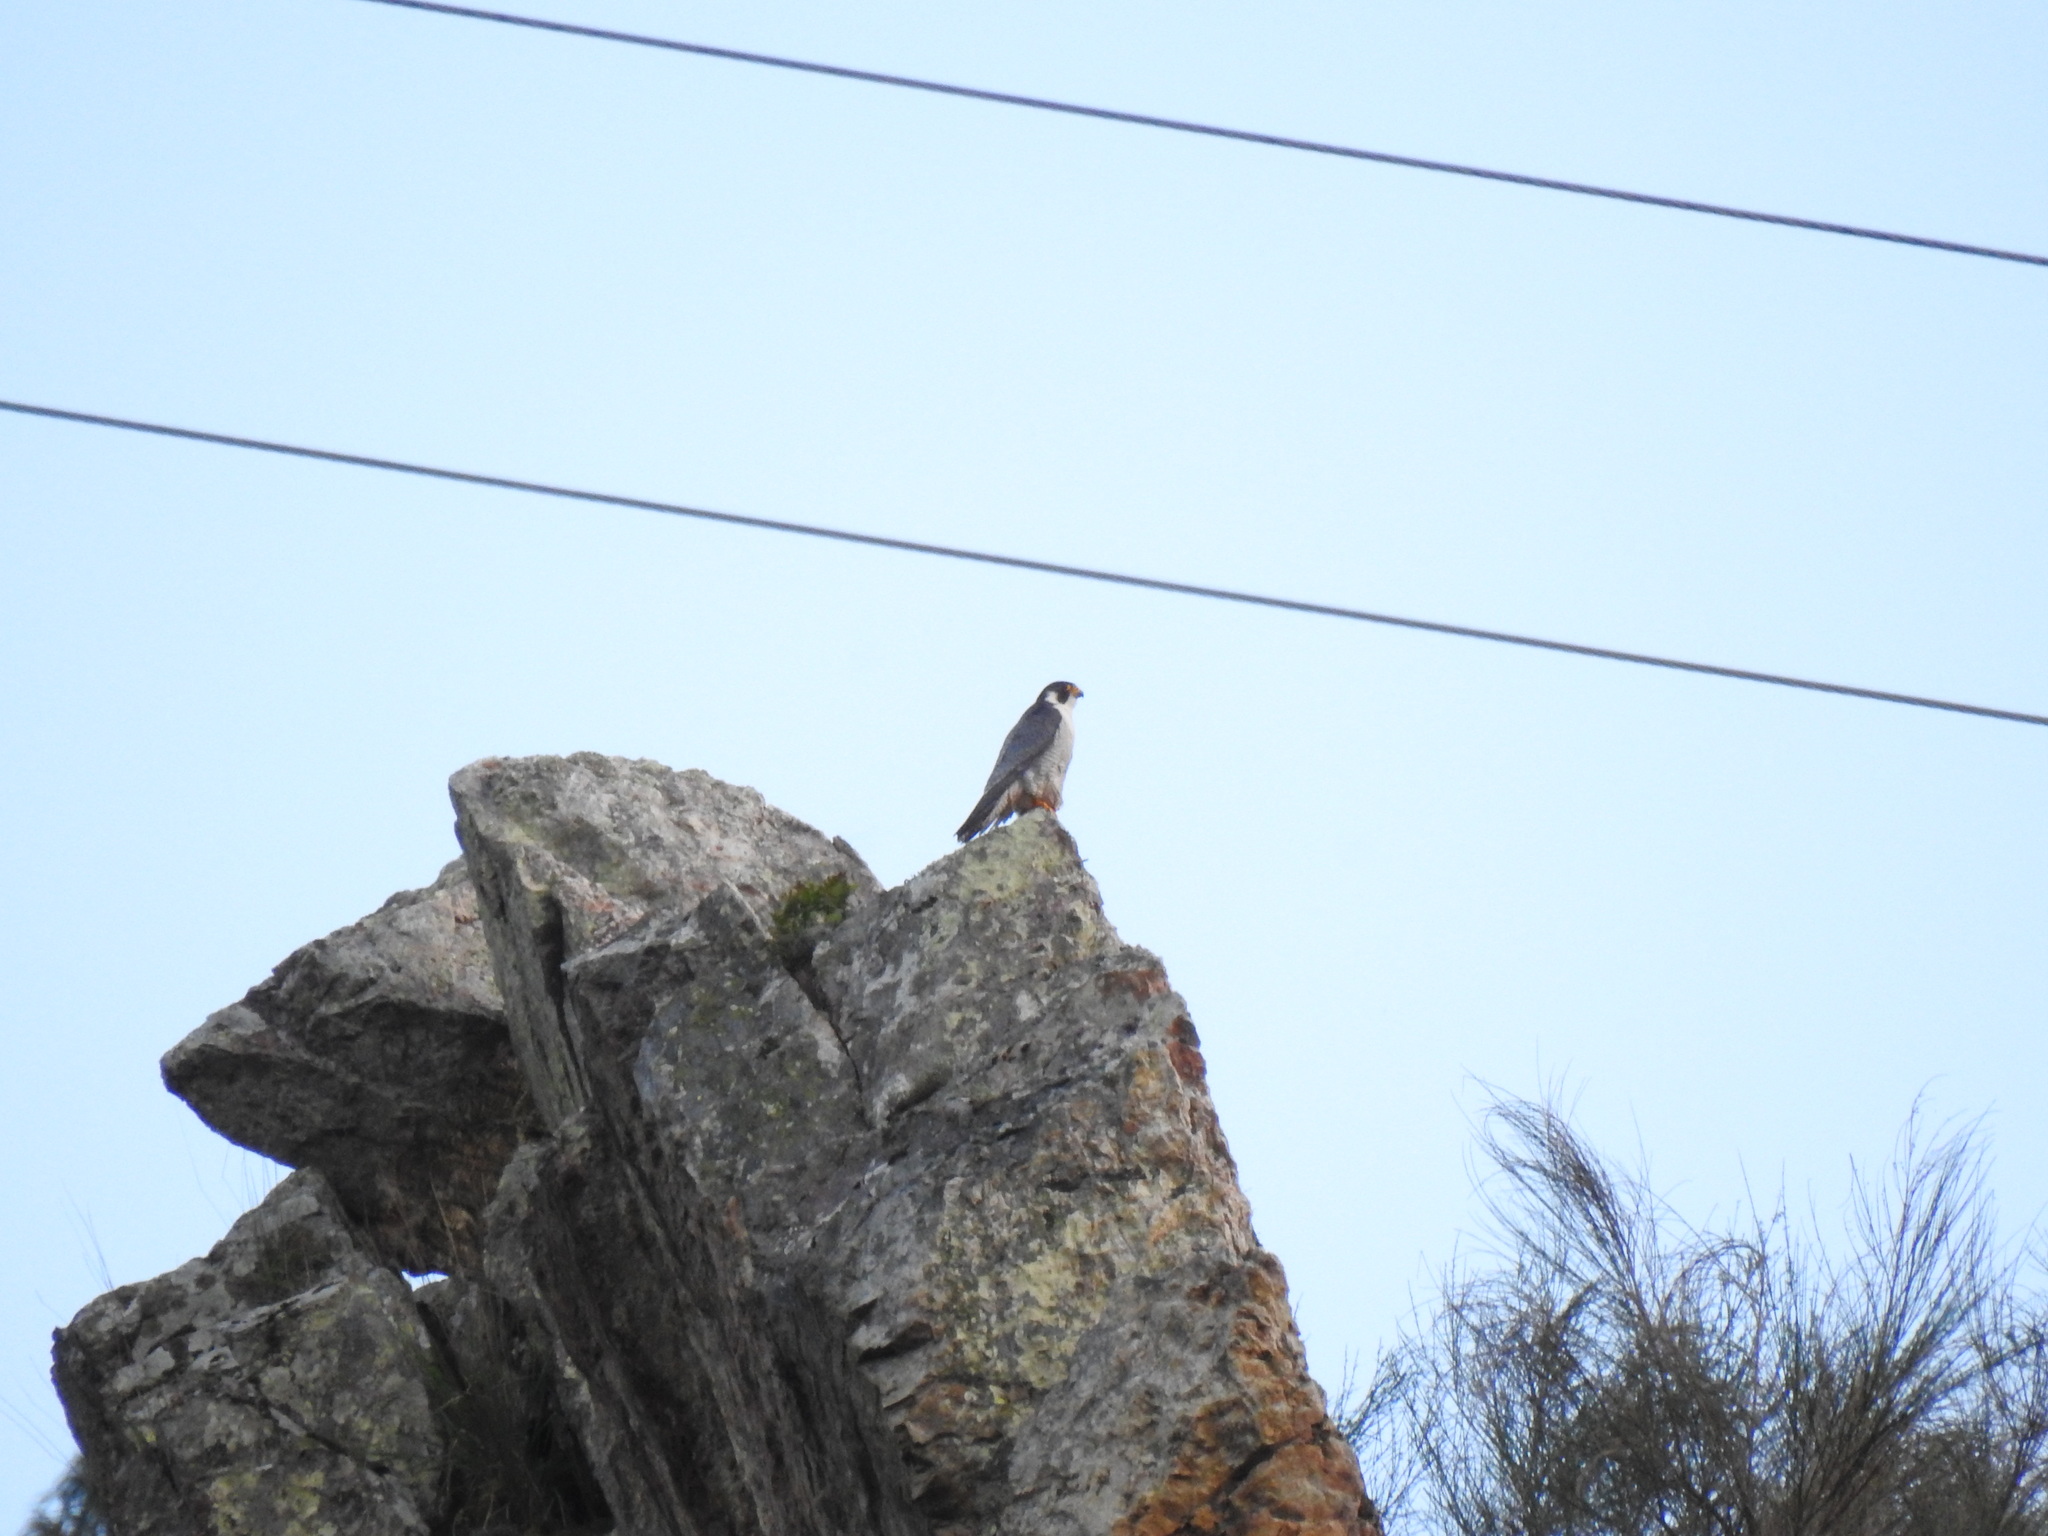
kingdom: Animalia
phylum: Chordata
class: Aves
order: Falconiformes
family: Falconidae
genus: Falco
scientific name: Falco peregrinus
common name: Peregrine falcon
